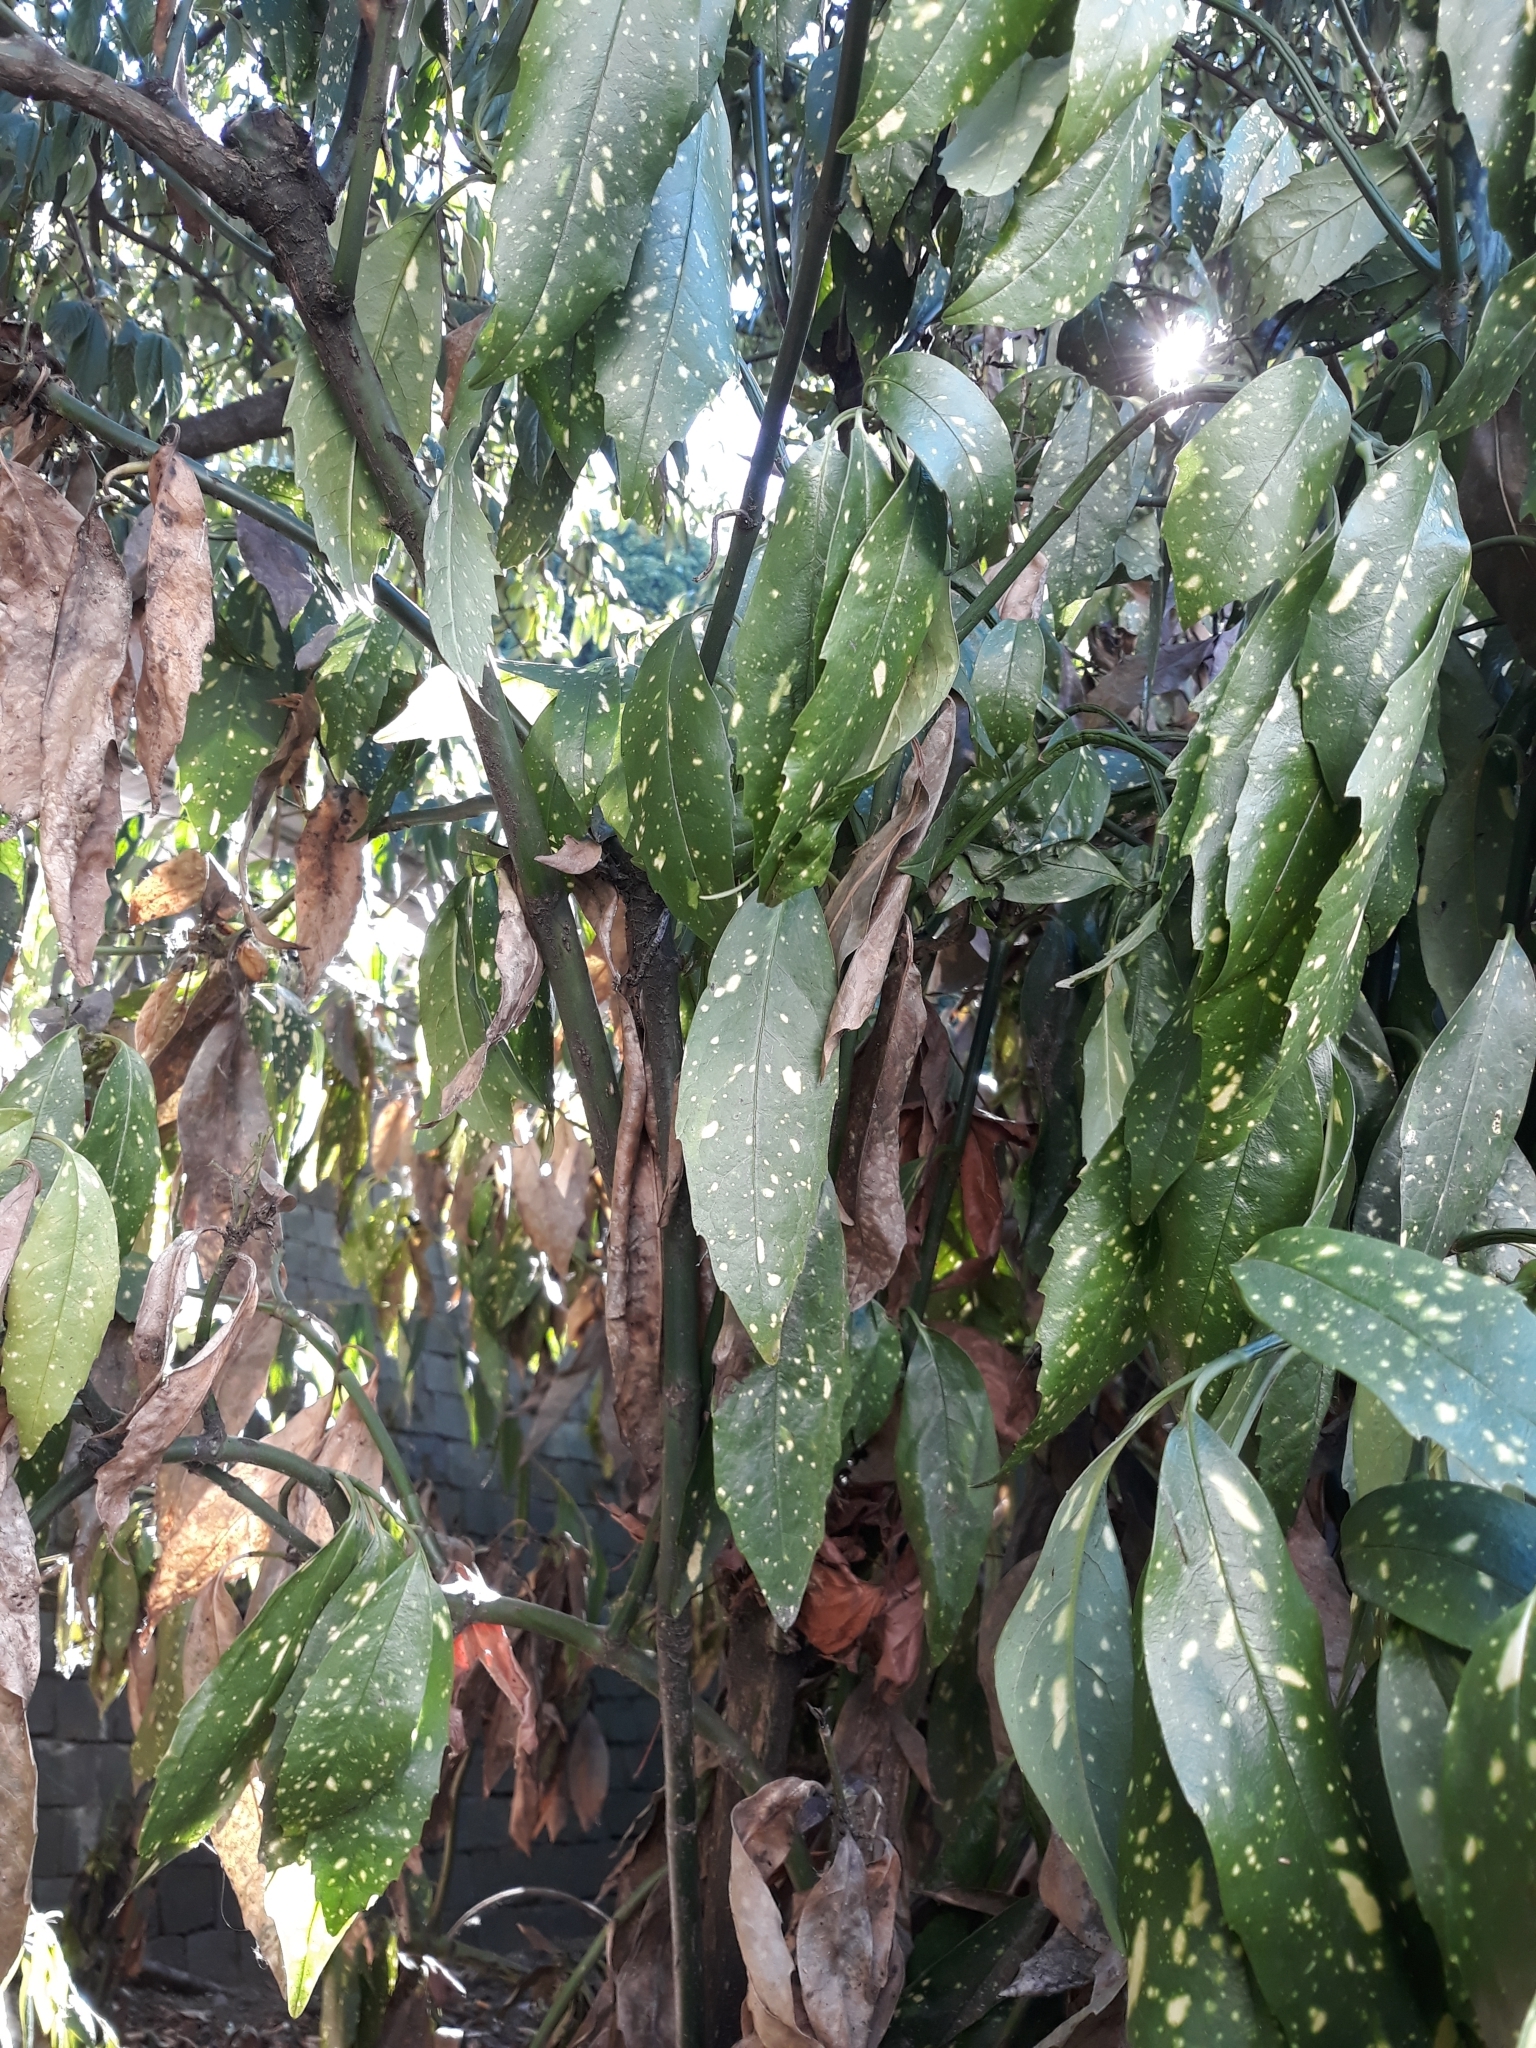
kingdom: Plantae
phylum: Tracheophyta
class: Magnoliopsida
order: Garryales
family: Garryaceae
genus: Aucuba
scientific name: Aucuba japonica
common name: Spotted-laurel
